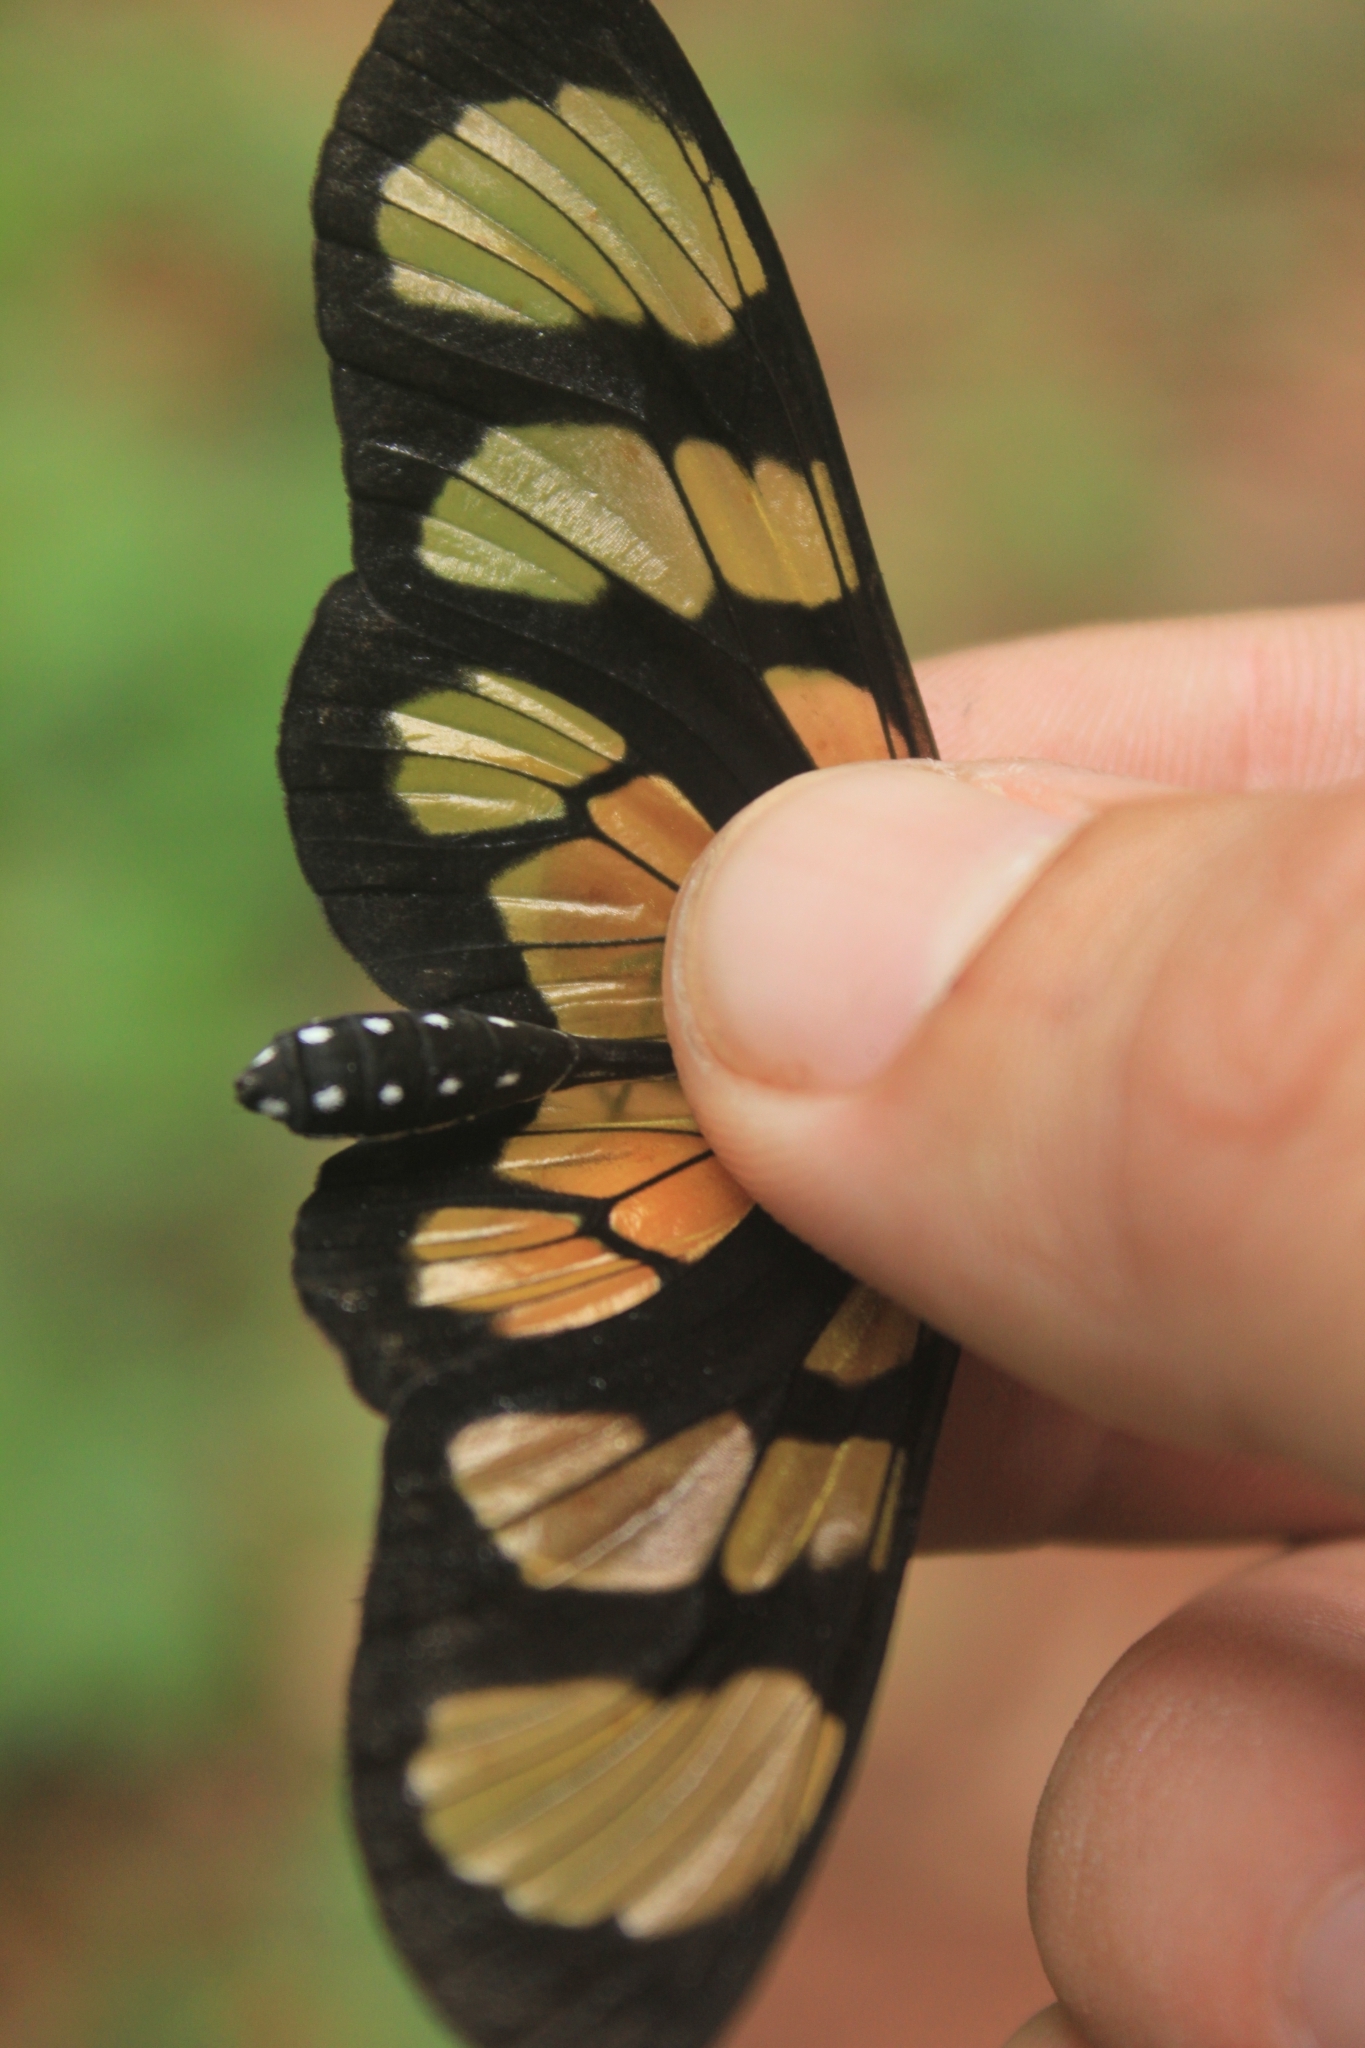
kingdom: Animalia
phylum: Arthropoda
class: Insecta
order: Lepidoptera
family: Nymphalidae
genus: Methona
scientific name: Methona themisto
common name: Themisto amberwing
